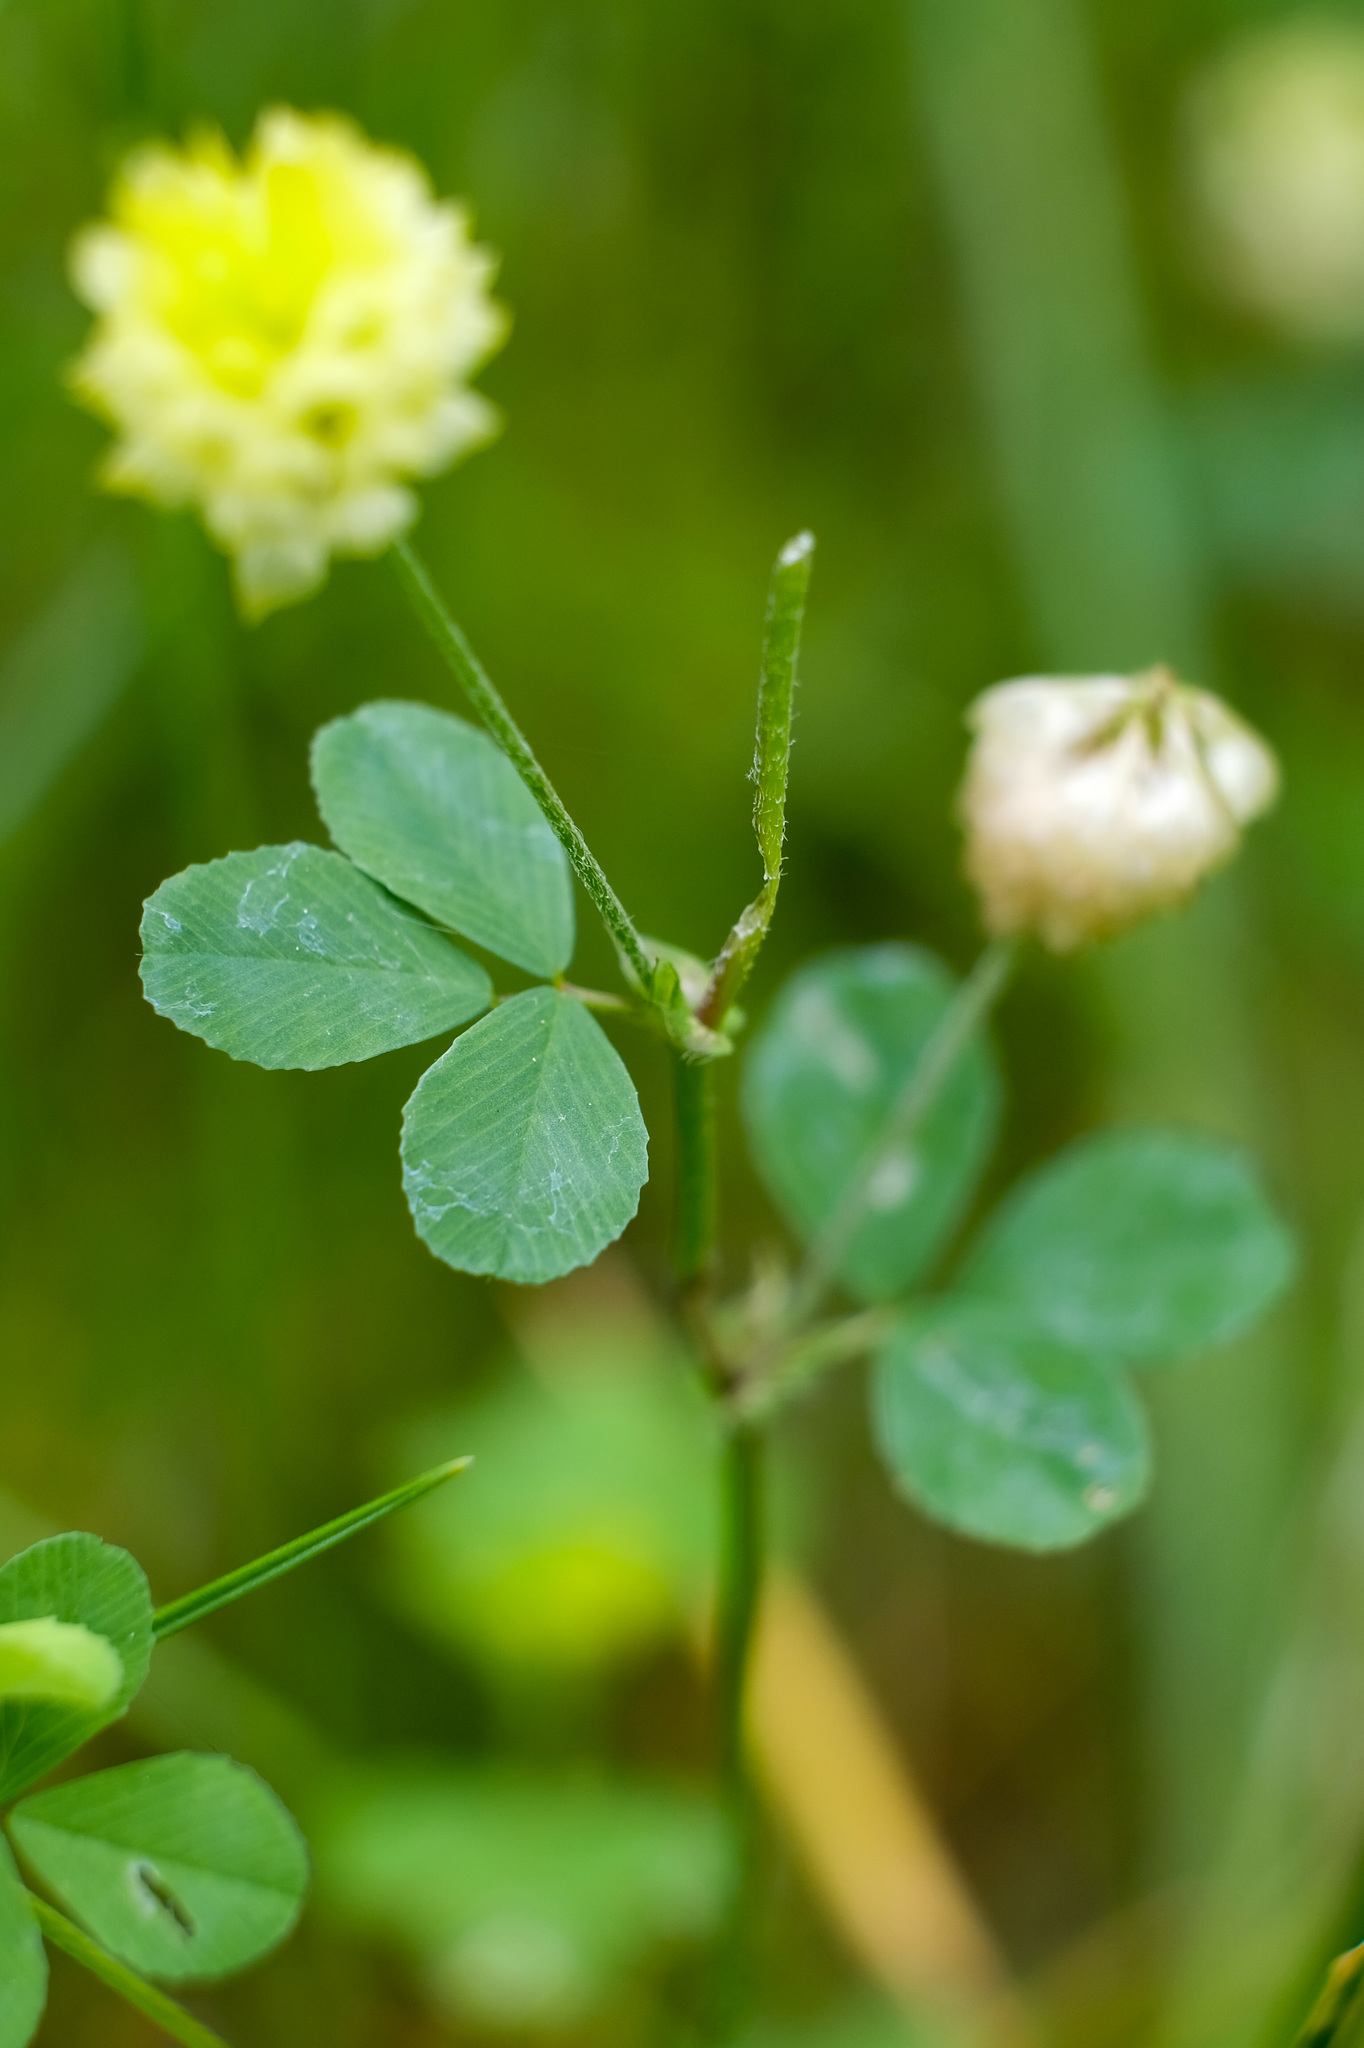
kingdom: Plantae
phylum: Tracheophyta
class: Magnoliopsida
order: Fabales
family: Fabaceae
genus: Trifolium
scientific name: Trifolium campestre
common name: Field clover
